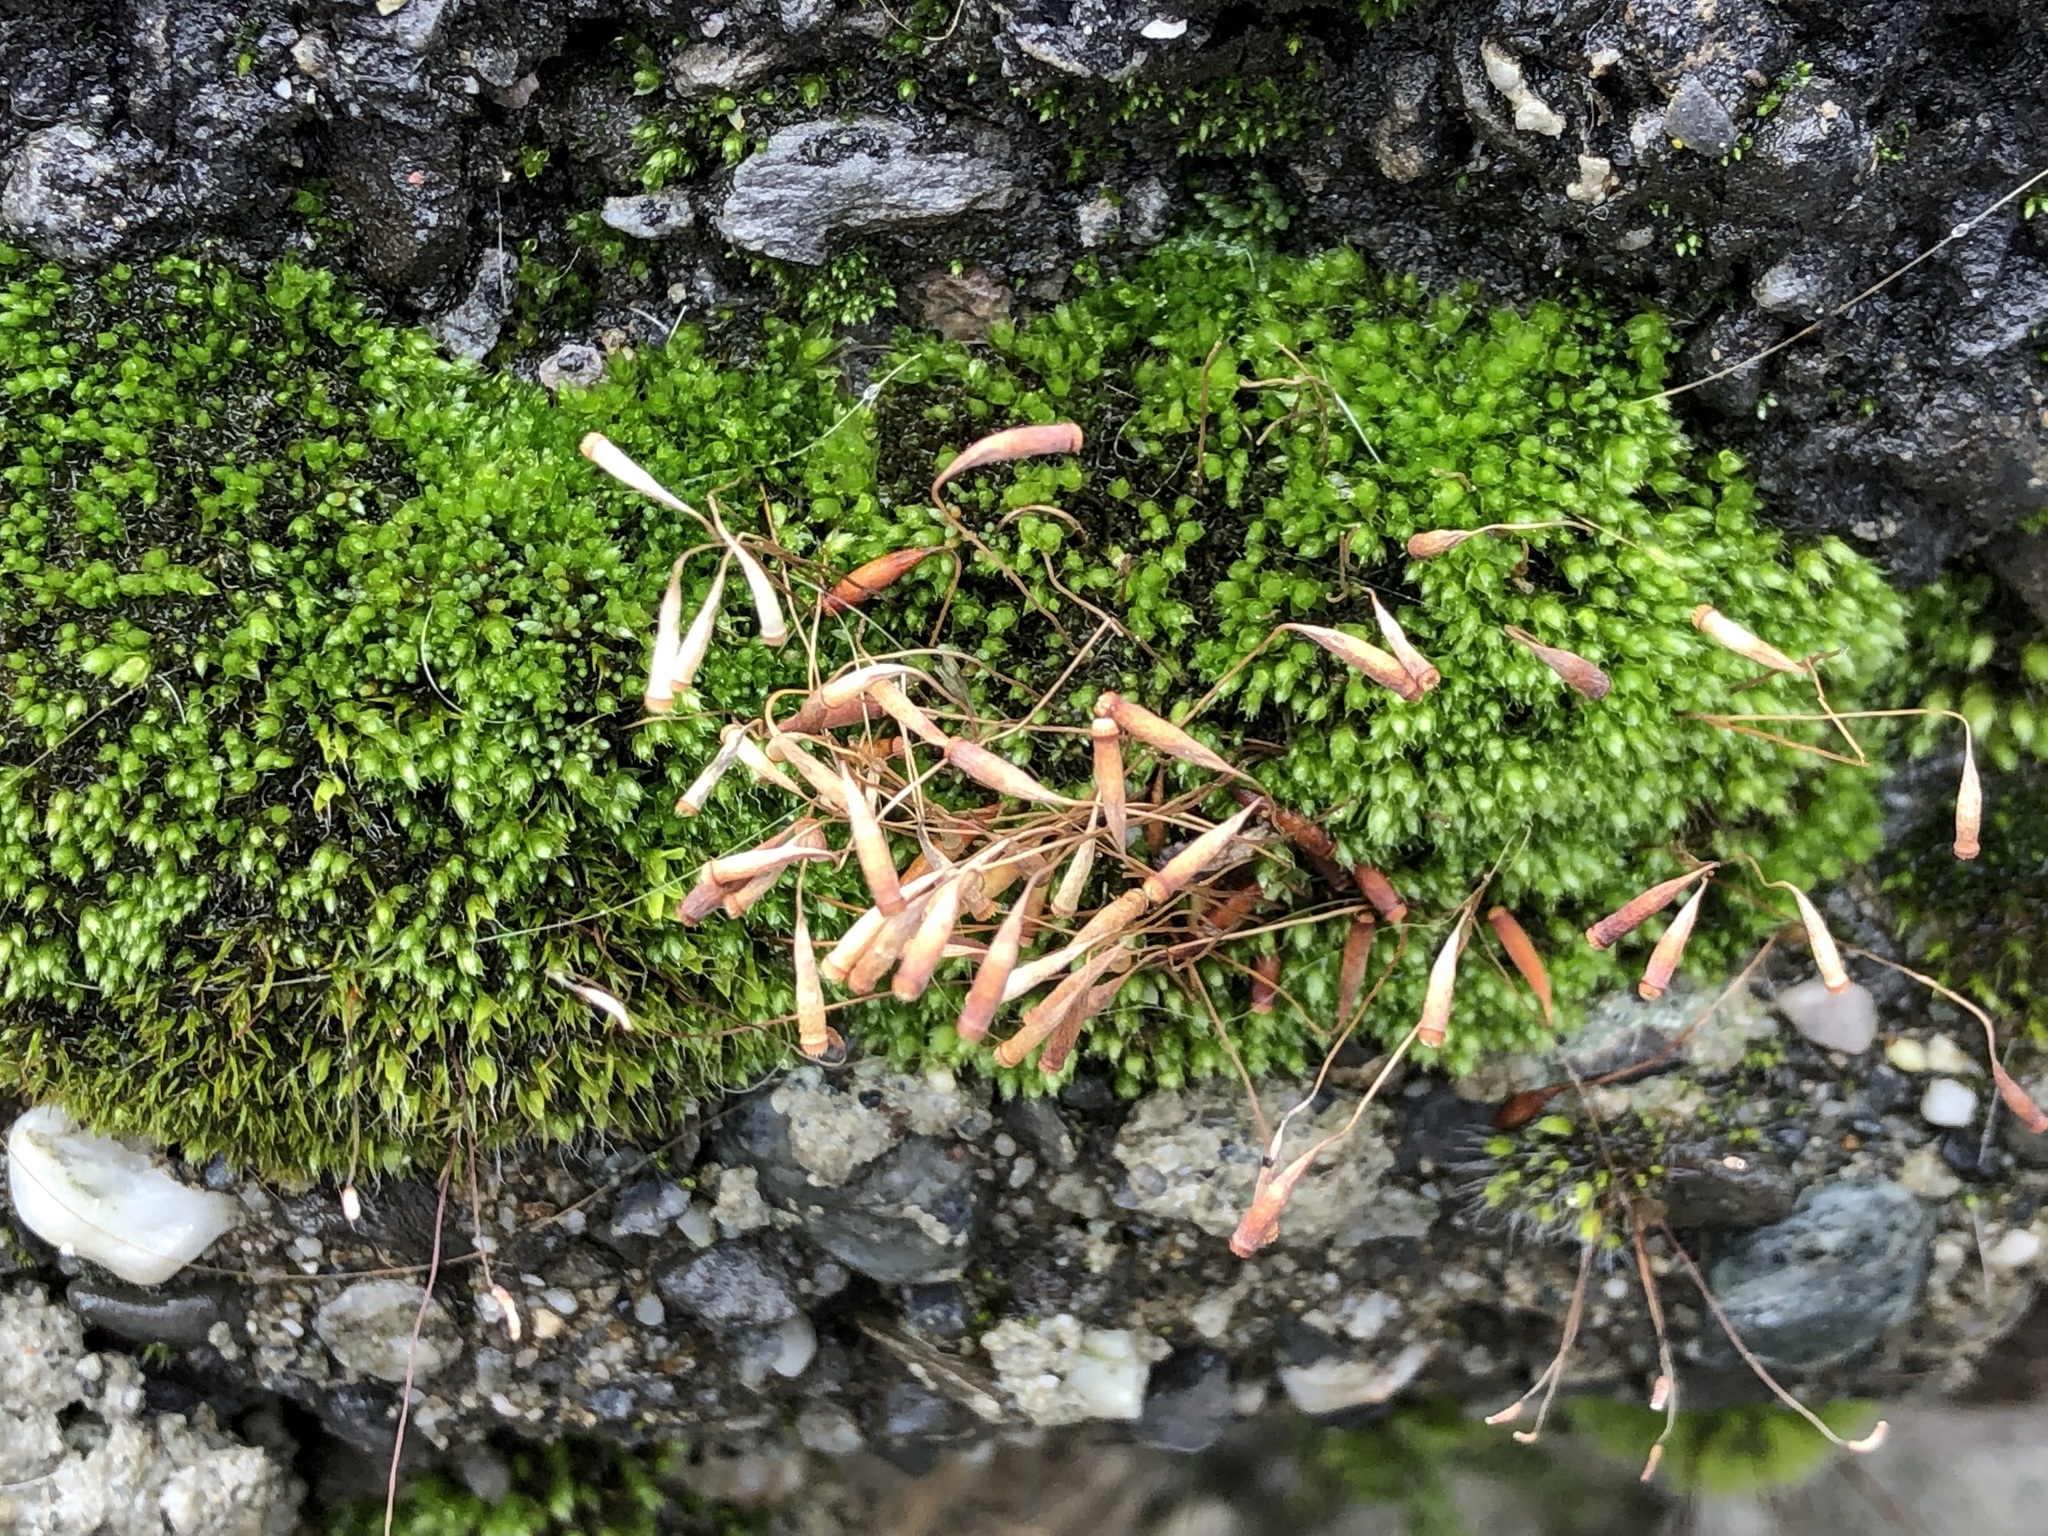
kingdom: Plantae
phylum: Bryophyta
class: Bryopsida
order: Bryales
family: Bryaceae
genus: Rosulabryum
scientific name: Rosulabryum capillare
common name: Capillary thread-moss
